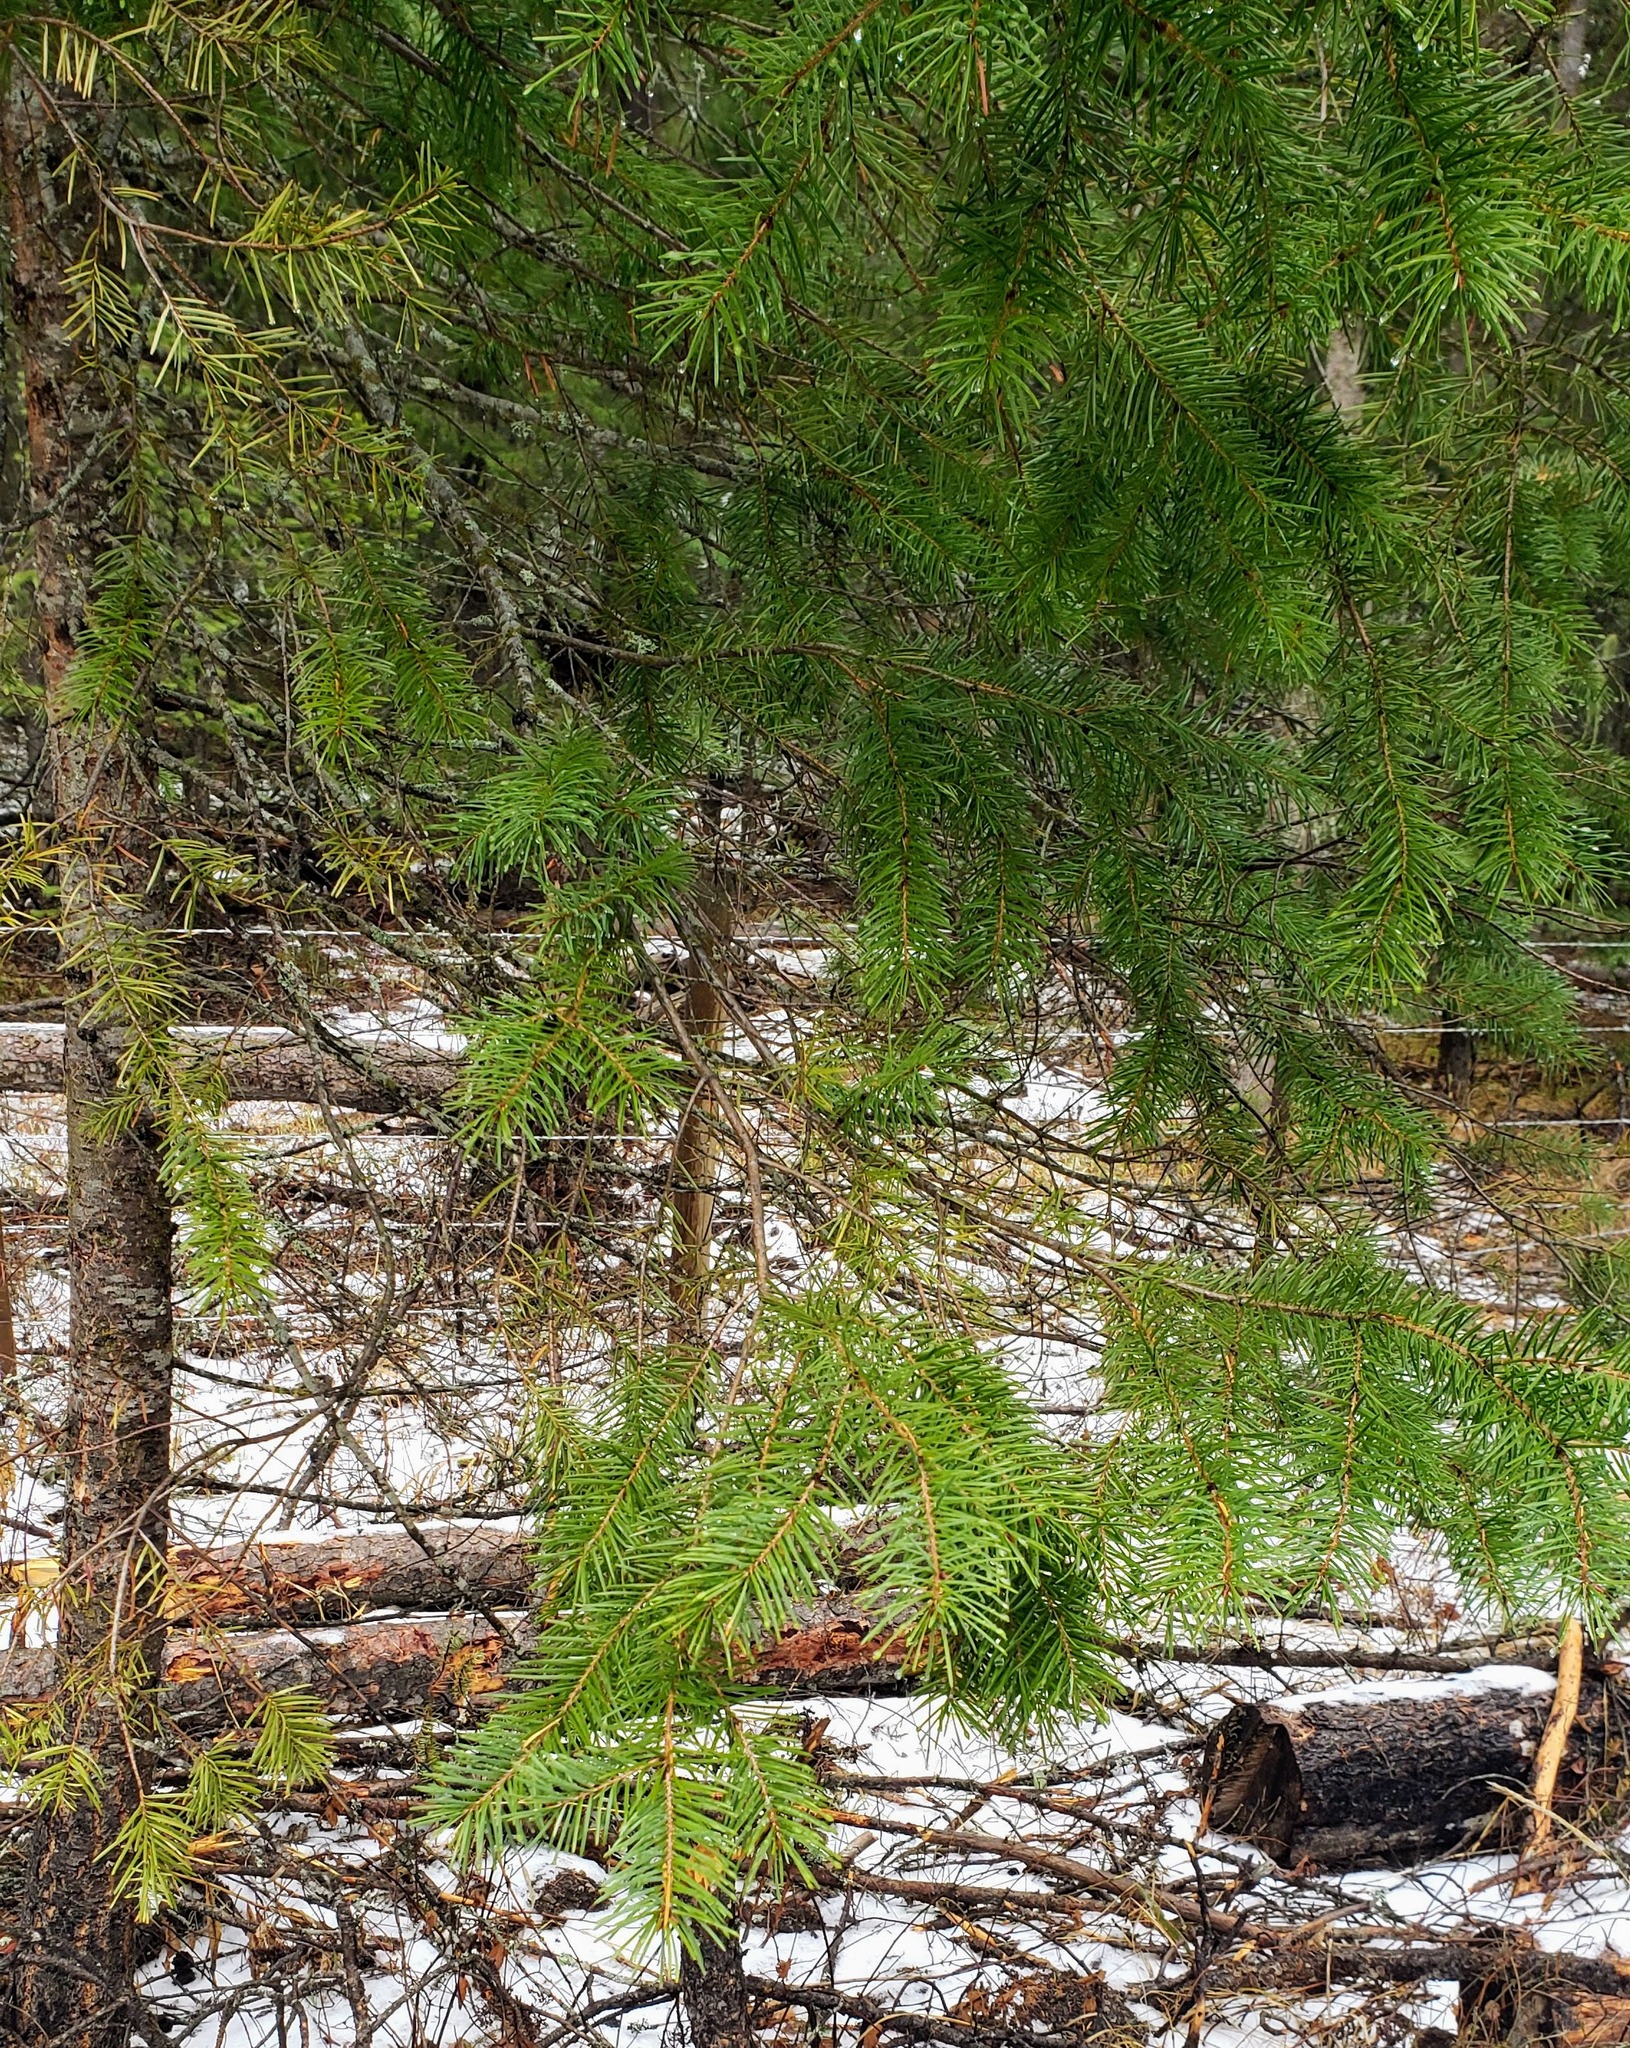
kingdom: Plantae
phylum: Tracheophyta
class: Pinopsida
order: Pinales
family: Pinaceae
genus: Pseudotsuga
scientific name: Pseudotsuga menziesii
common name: Douglas fir
